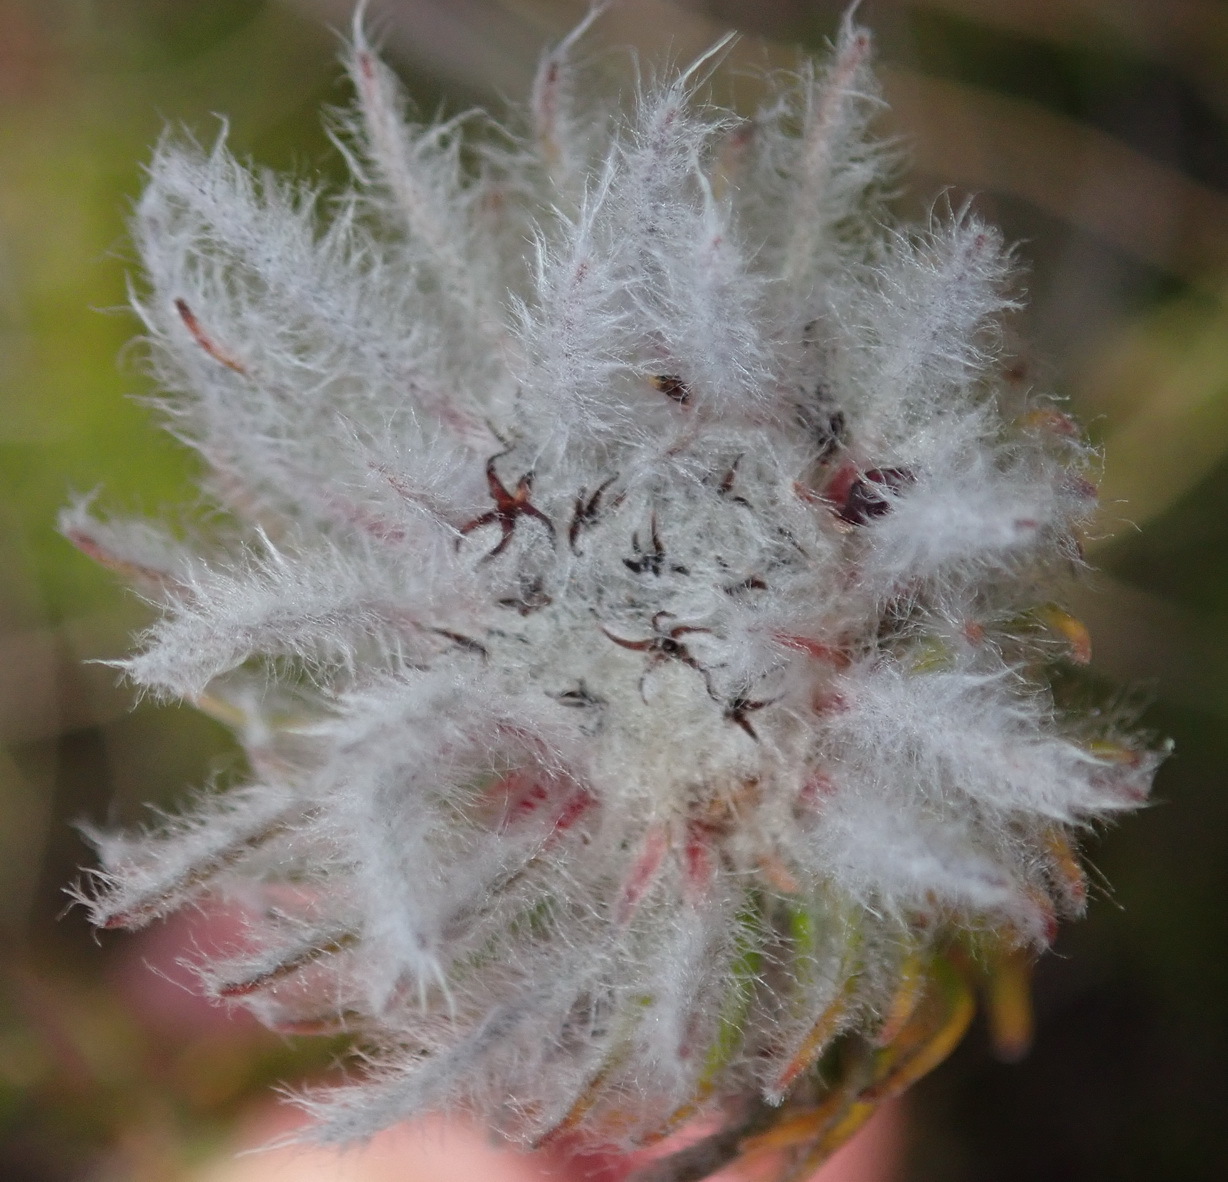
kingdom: Plantae
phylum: Tracheophyta
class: Magnoliopsida
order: Rosales
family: Rhamnaceae
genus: Phylica
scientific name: Phylica meyeri
